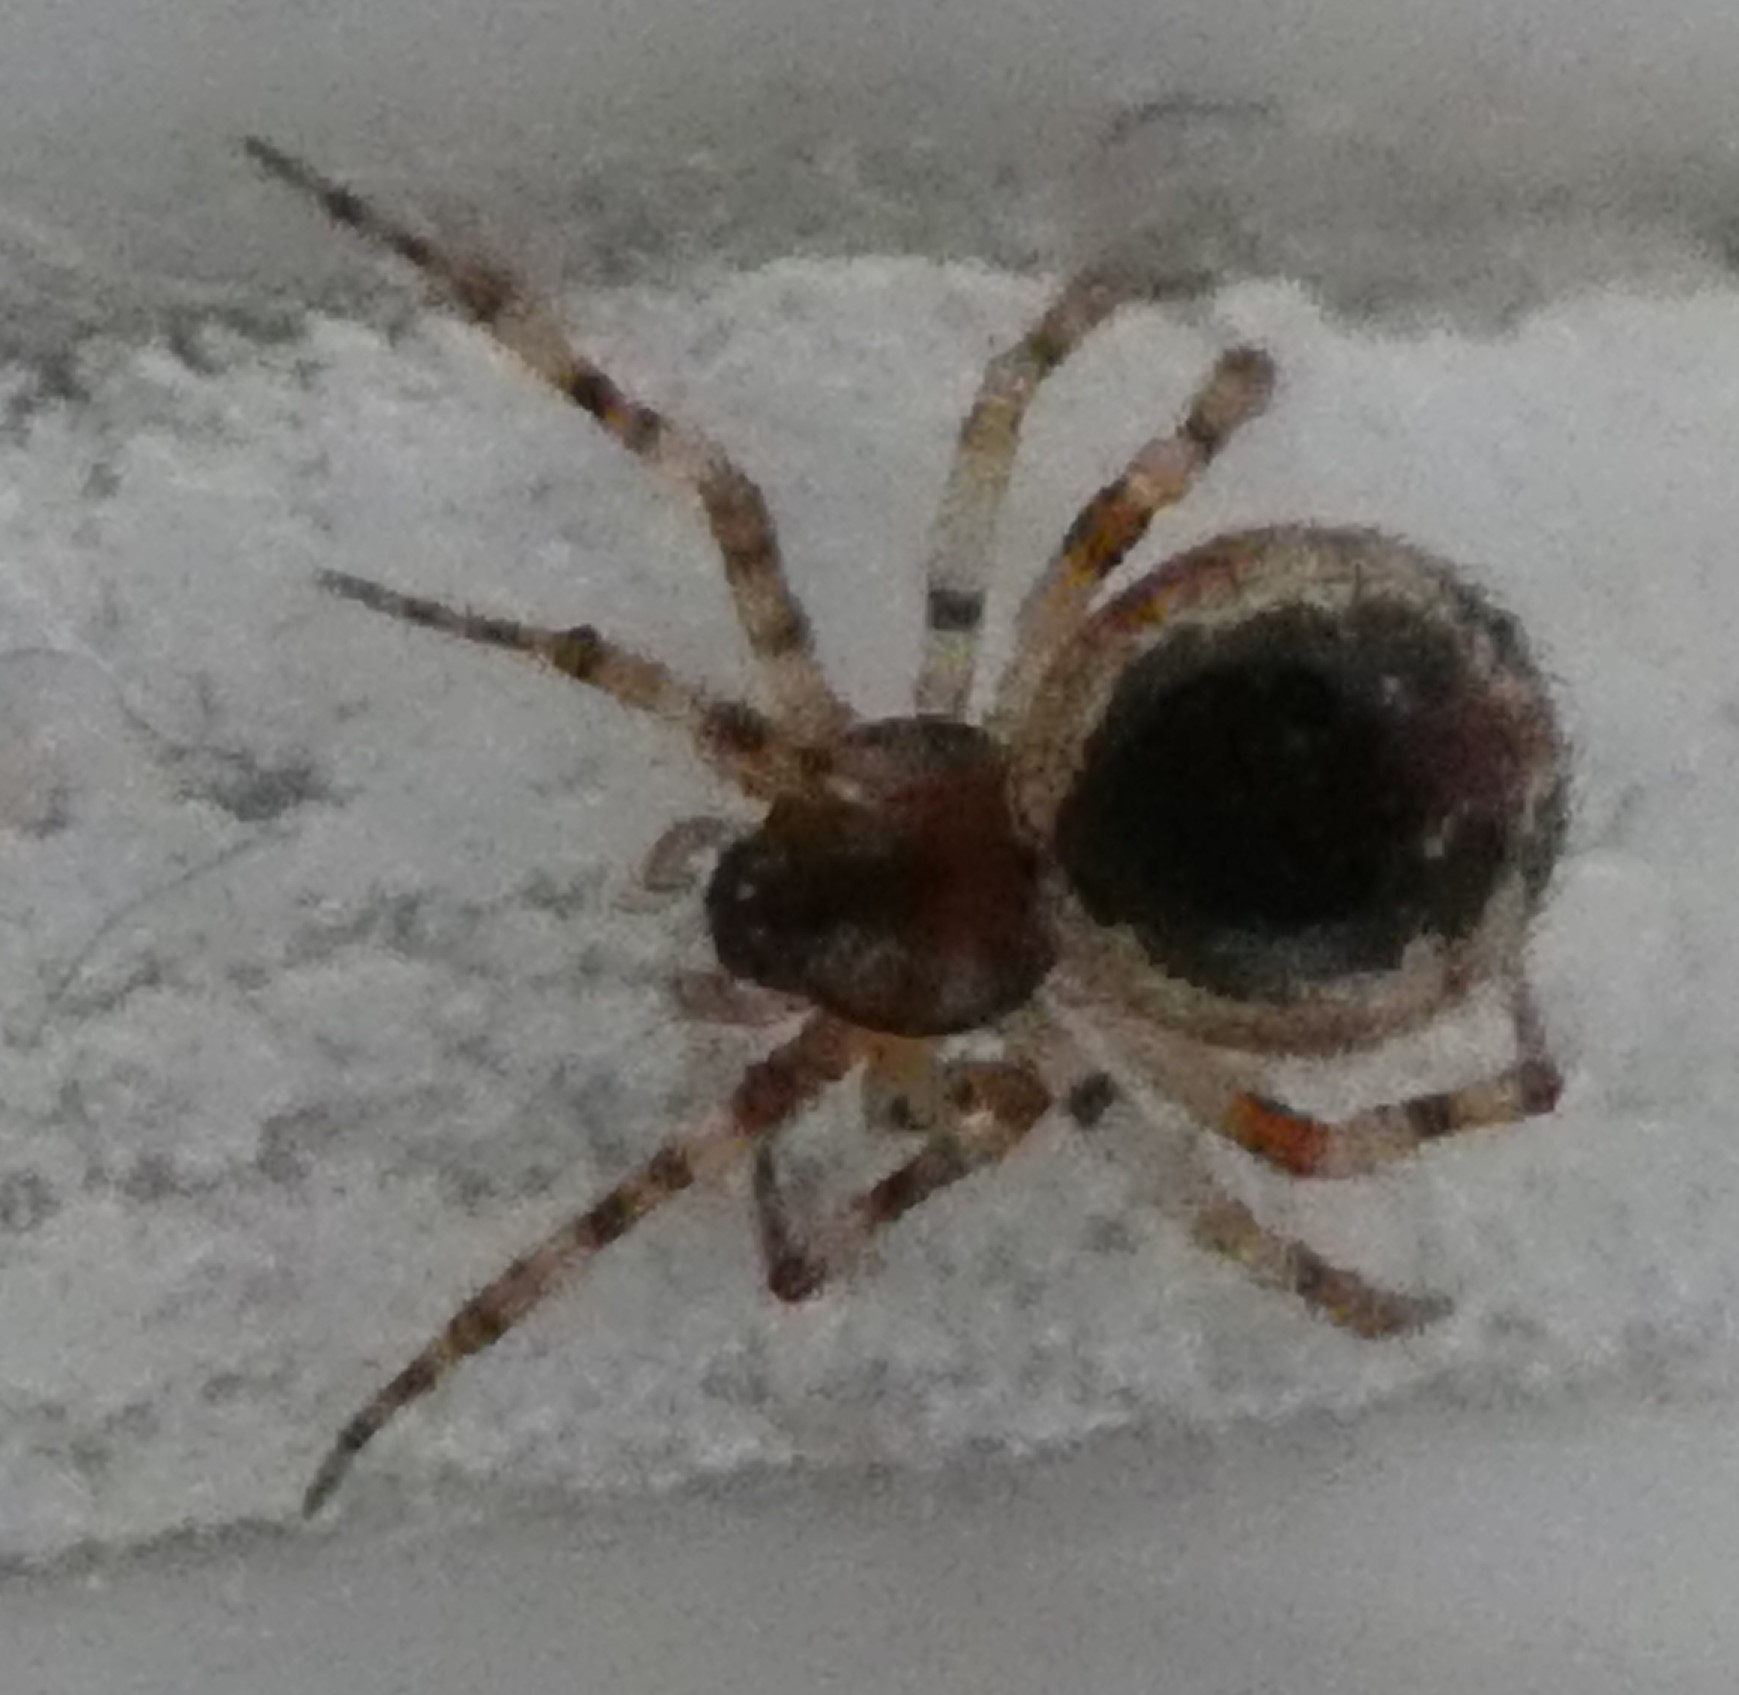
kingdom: Animalia
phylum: Arthropoda
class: Arachnida
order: Araneae
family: Theridiidae
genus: Sardinidion
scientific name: Sardinidion blackwalli
